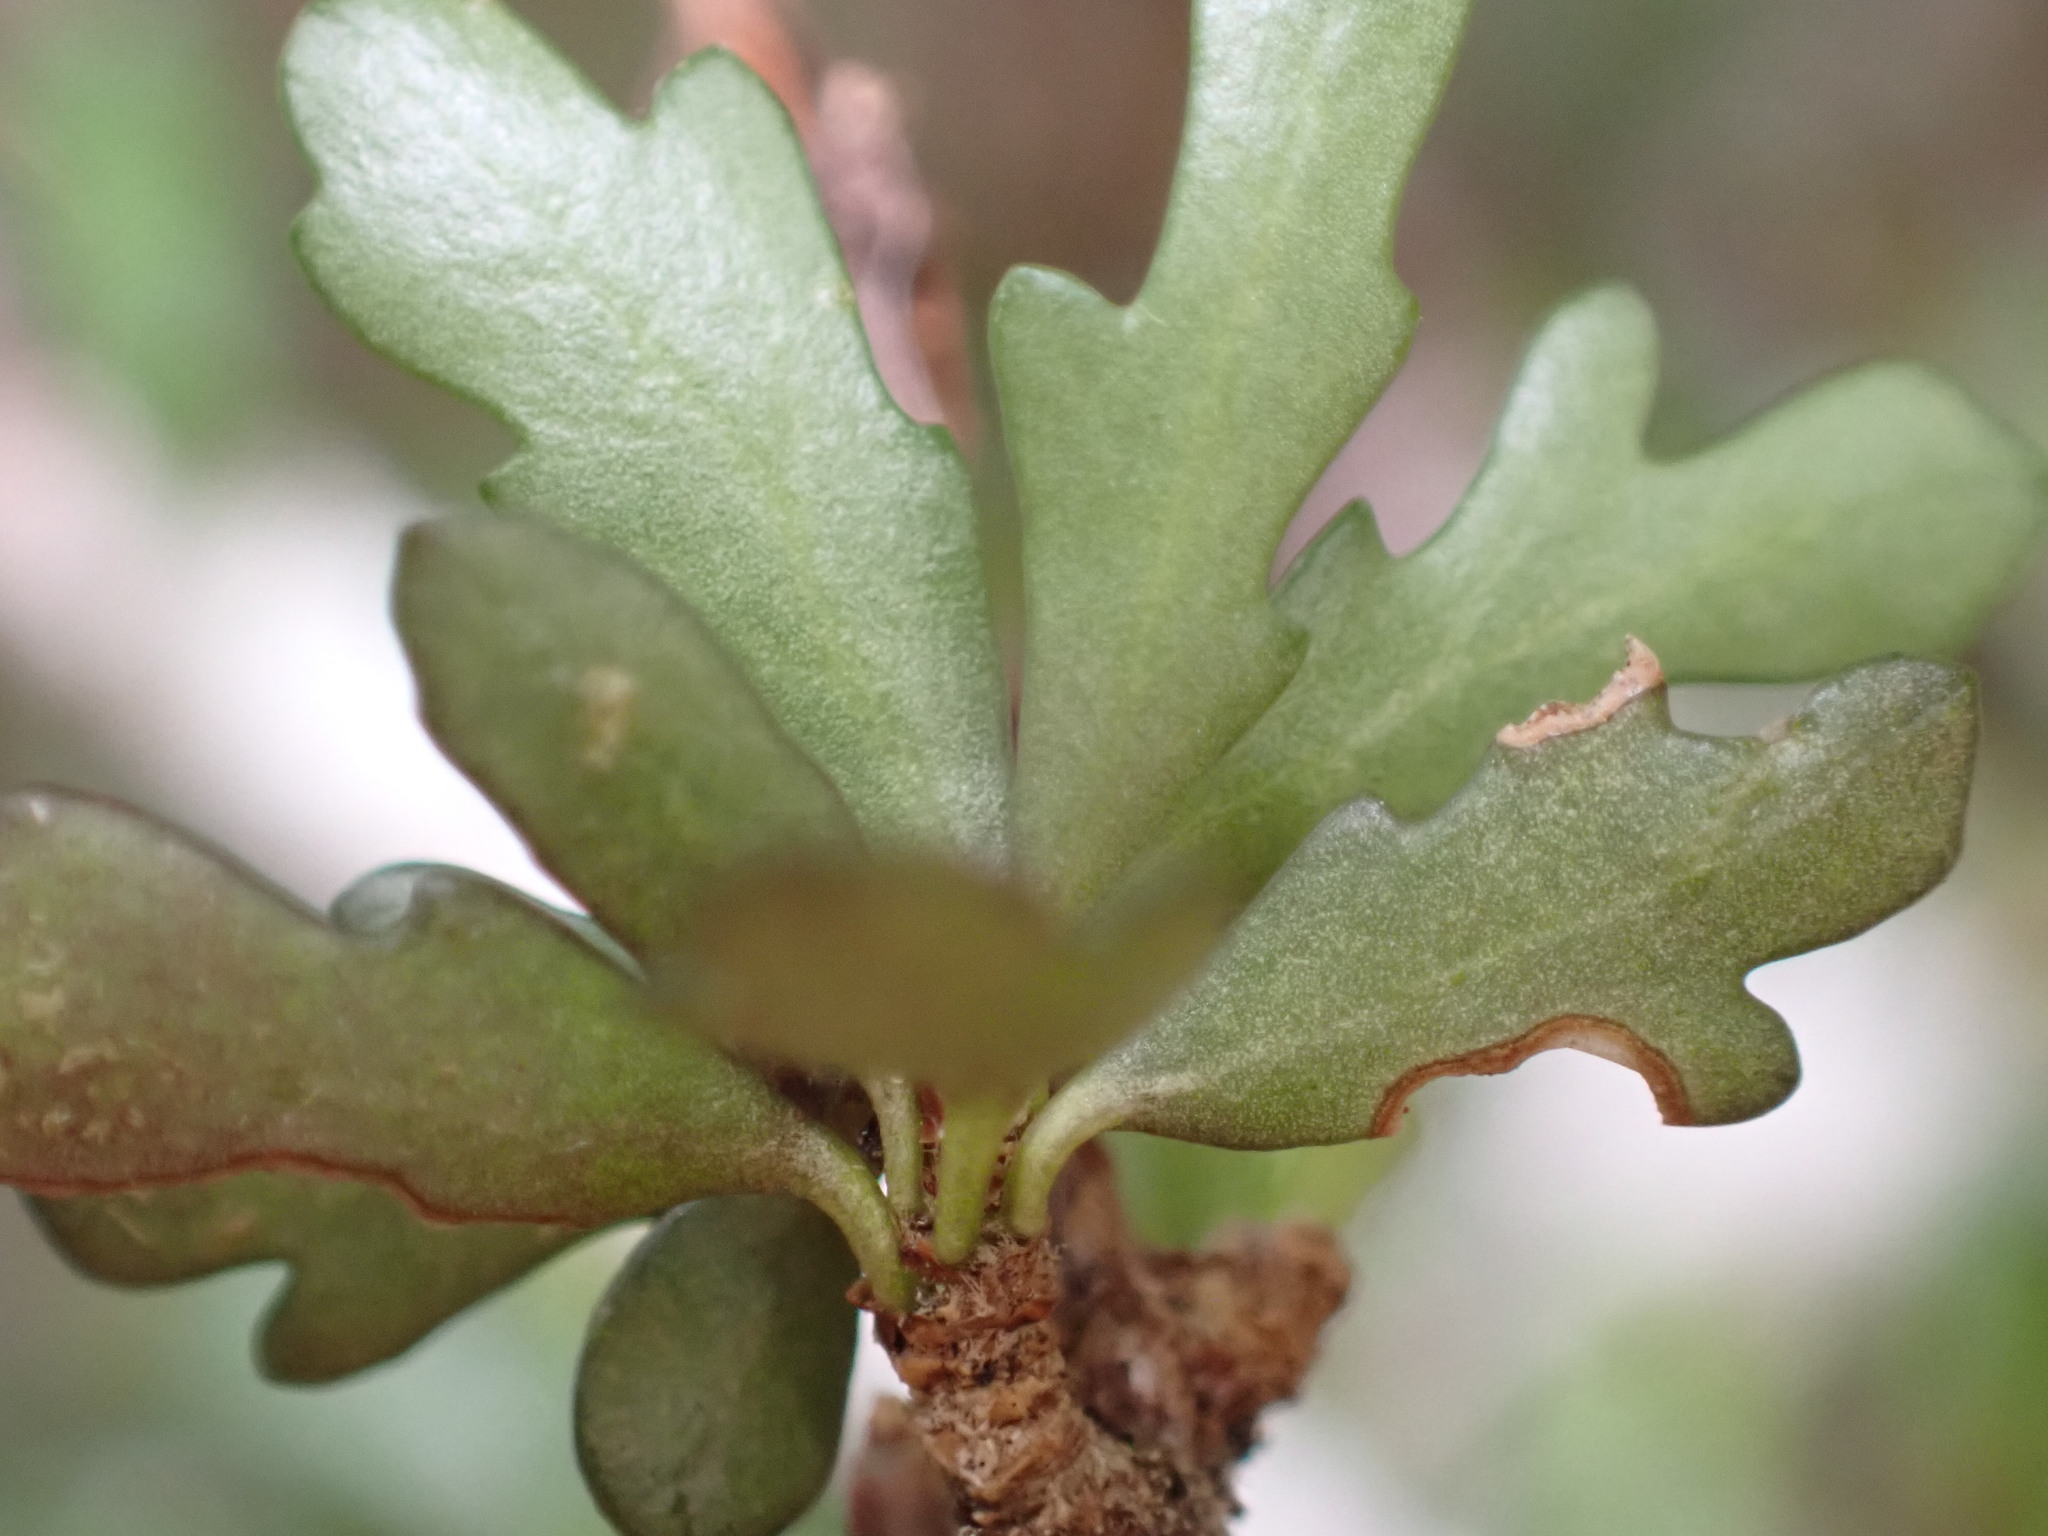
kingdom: Plantae
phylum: Tracheophyta
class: Magnoliopsida
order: Apiales
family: Pittosporaceae
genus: Pittosporum
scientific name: Pittosporum divaricatum
